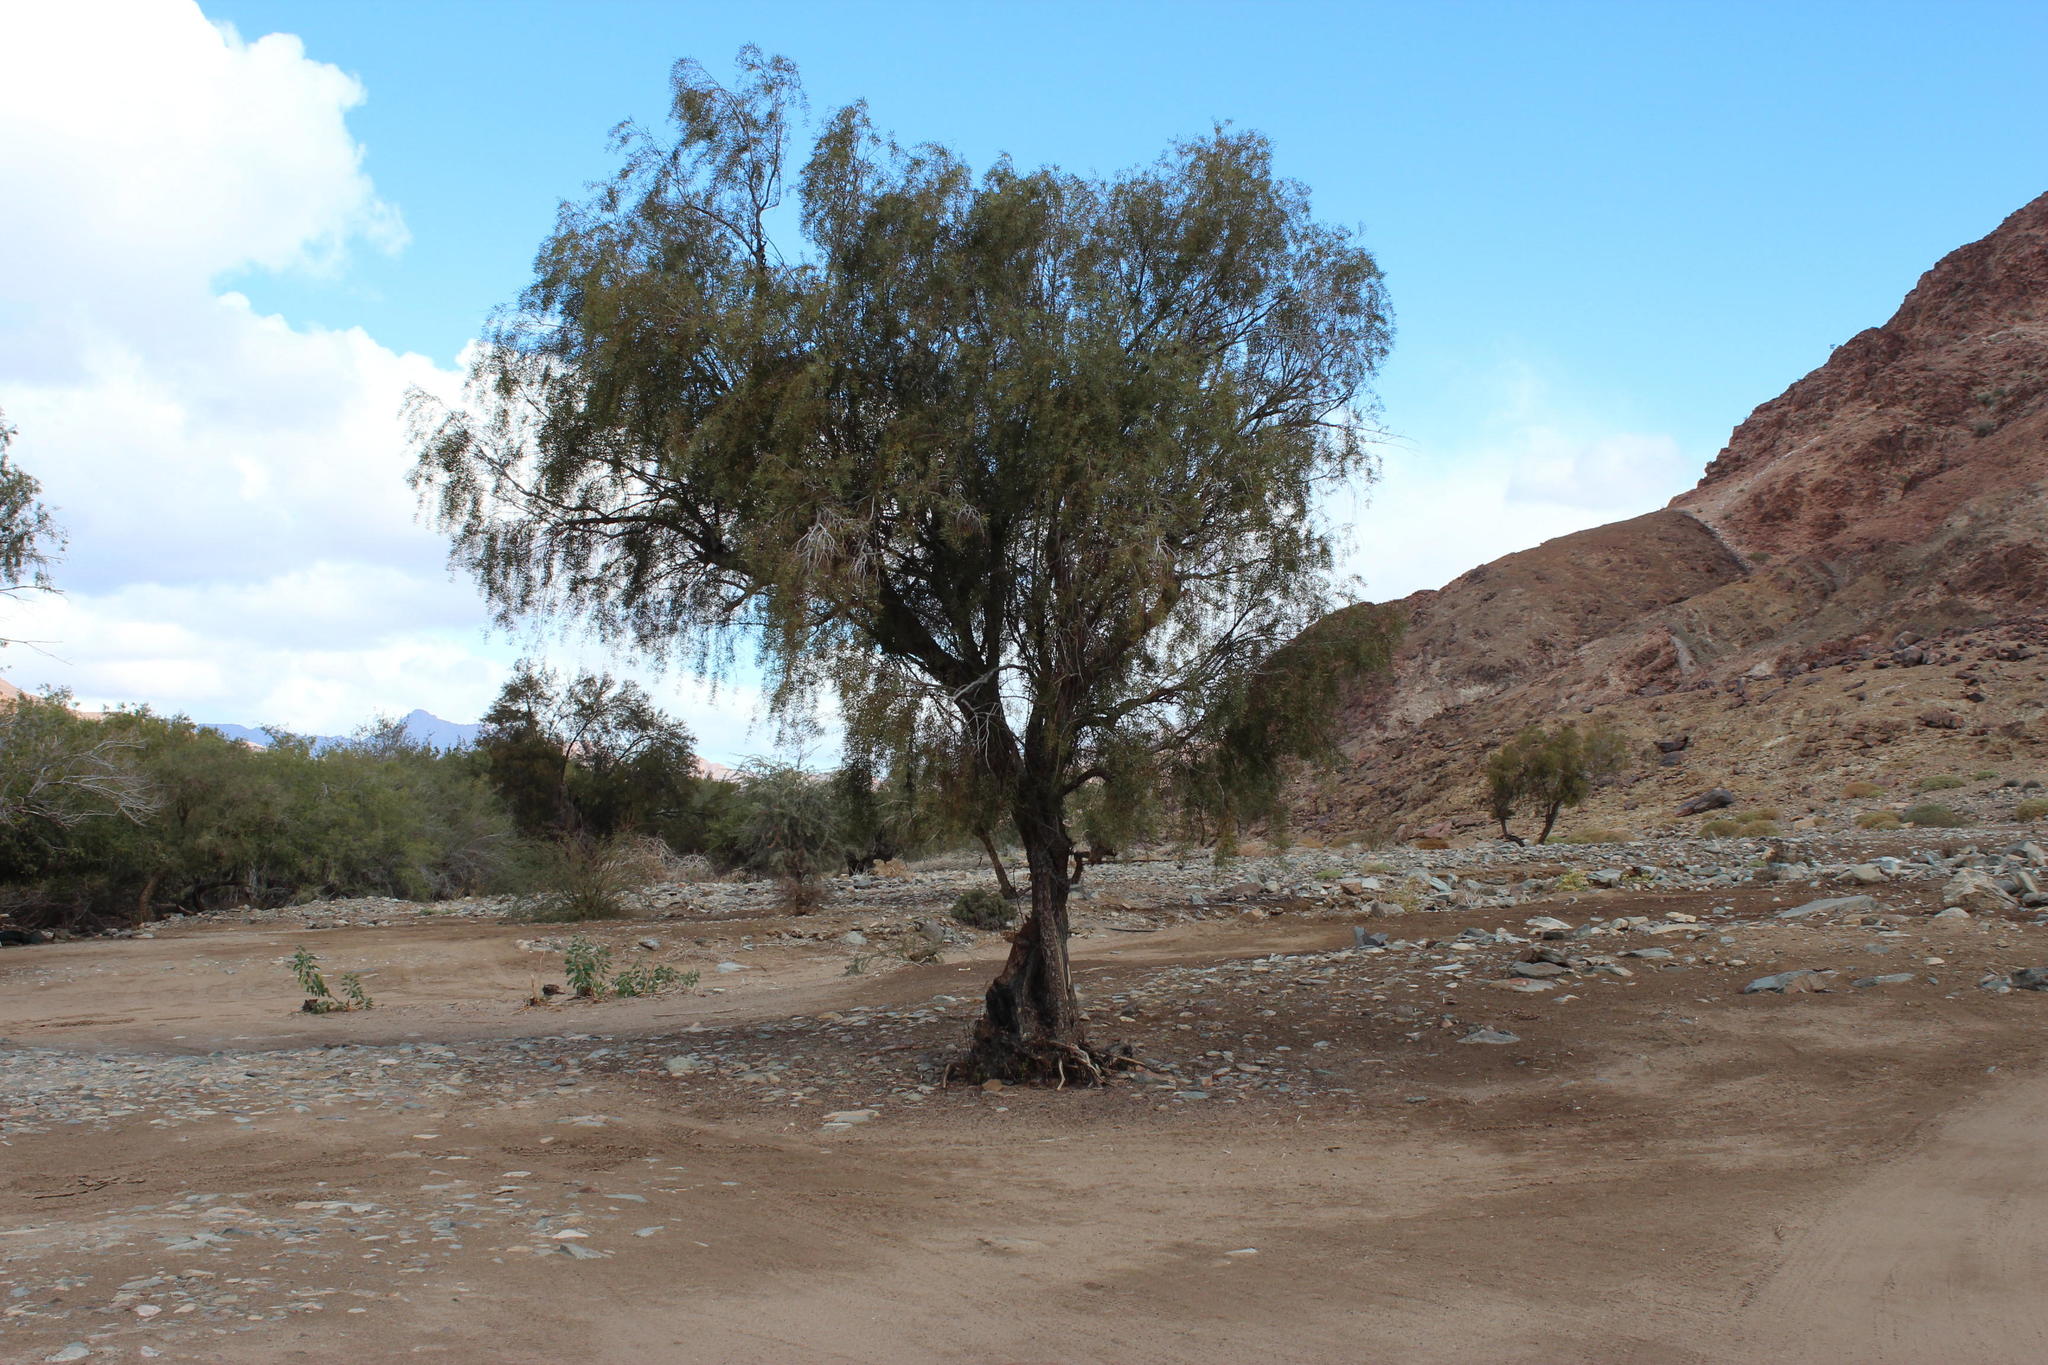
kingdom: Plantae
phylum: Tracheophyta
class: Magnoliopsida
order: Ericales
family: Ebenaceae
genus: Euclea
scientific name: Euclea pseudebenus
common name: Black ebony
